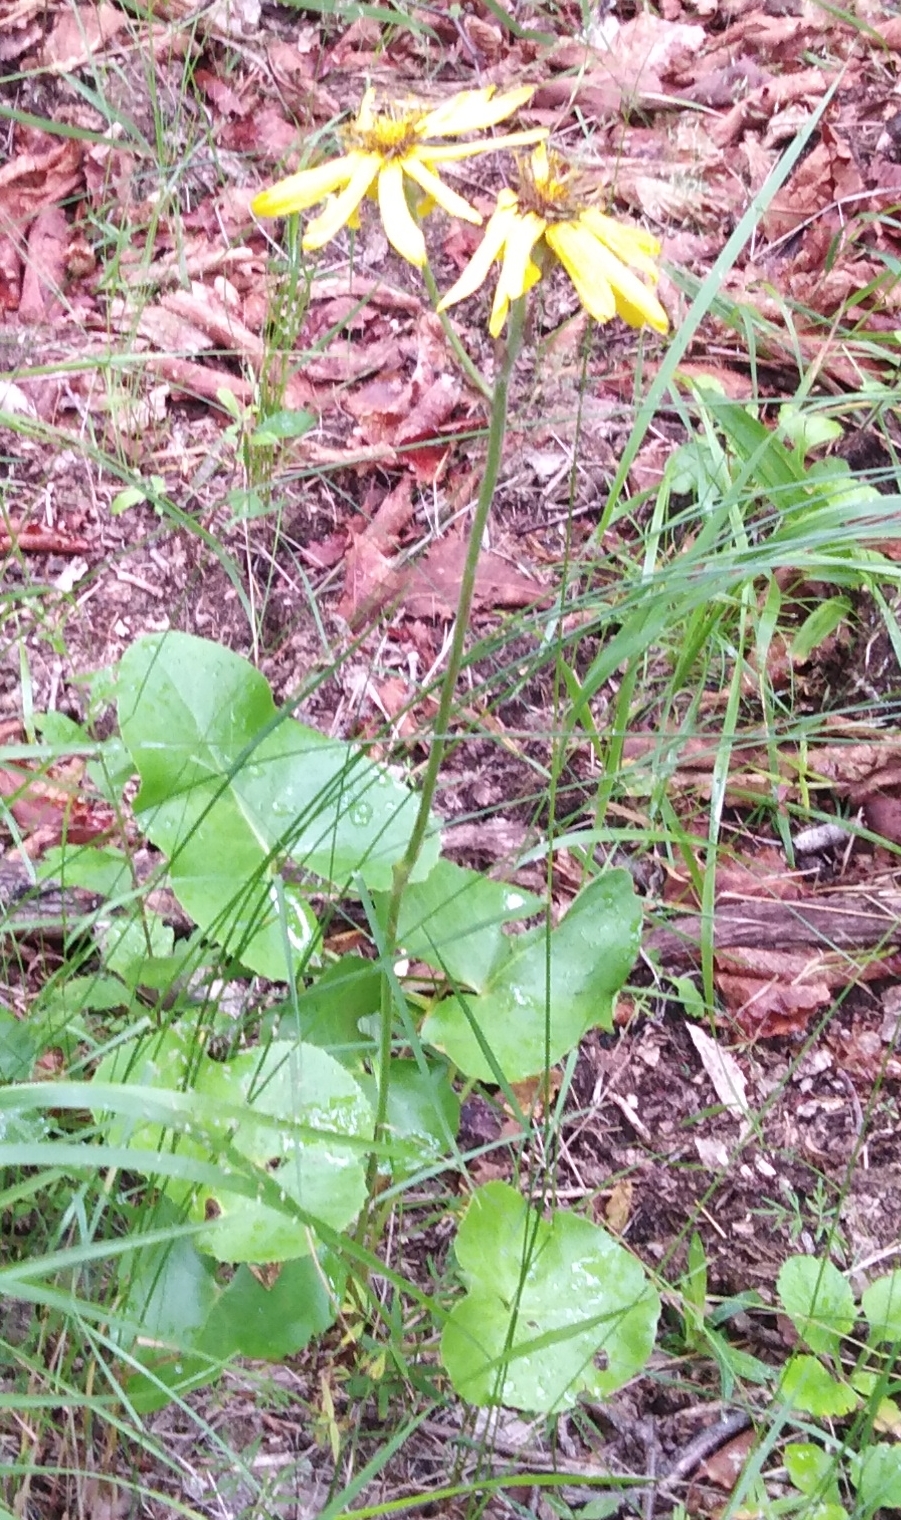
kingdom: Plantae
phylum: Tracheophyta
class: Magnoliopsida
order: Asterales
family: Asteraceae
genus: Ligularia
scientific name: Ligularia calthifolia
